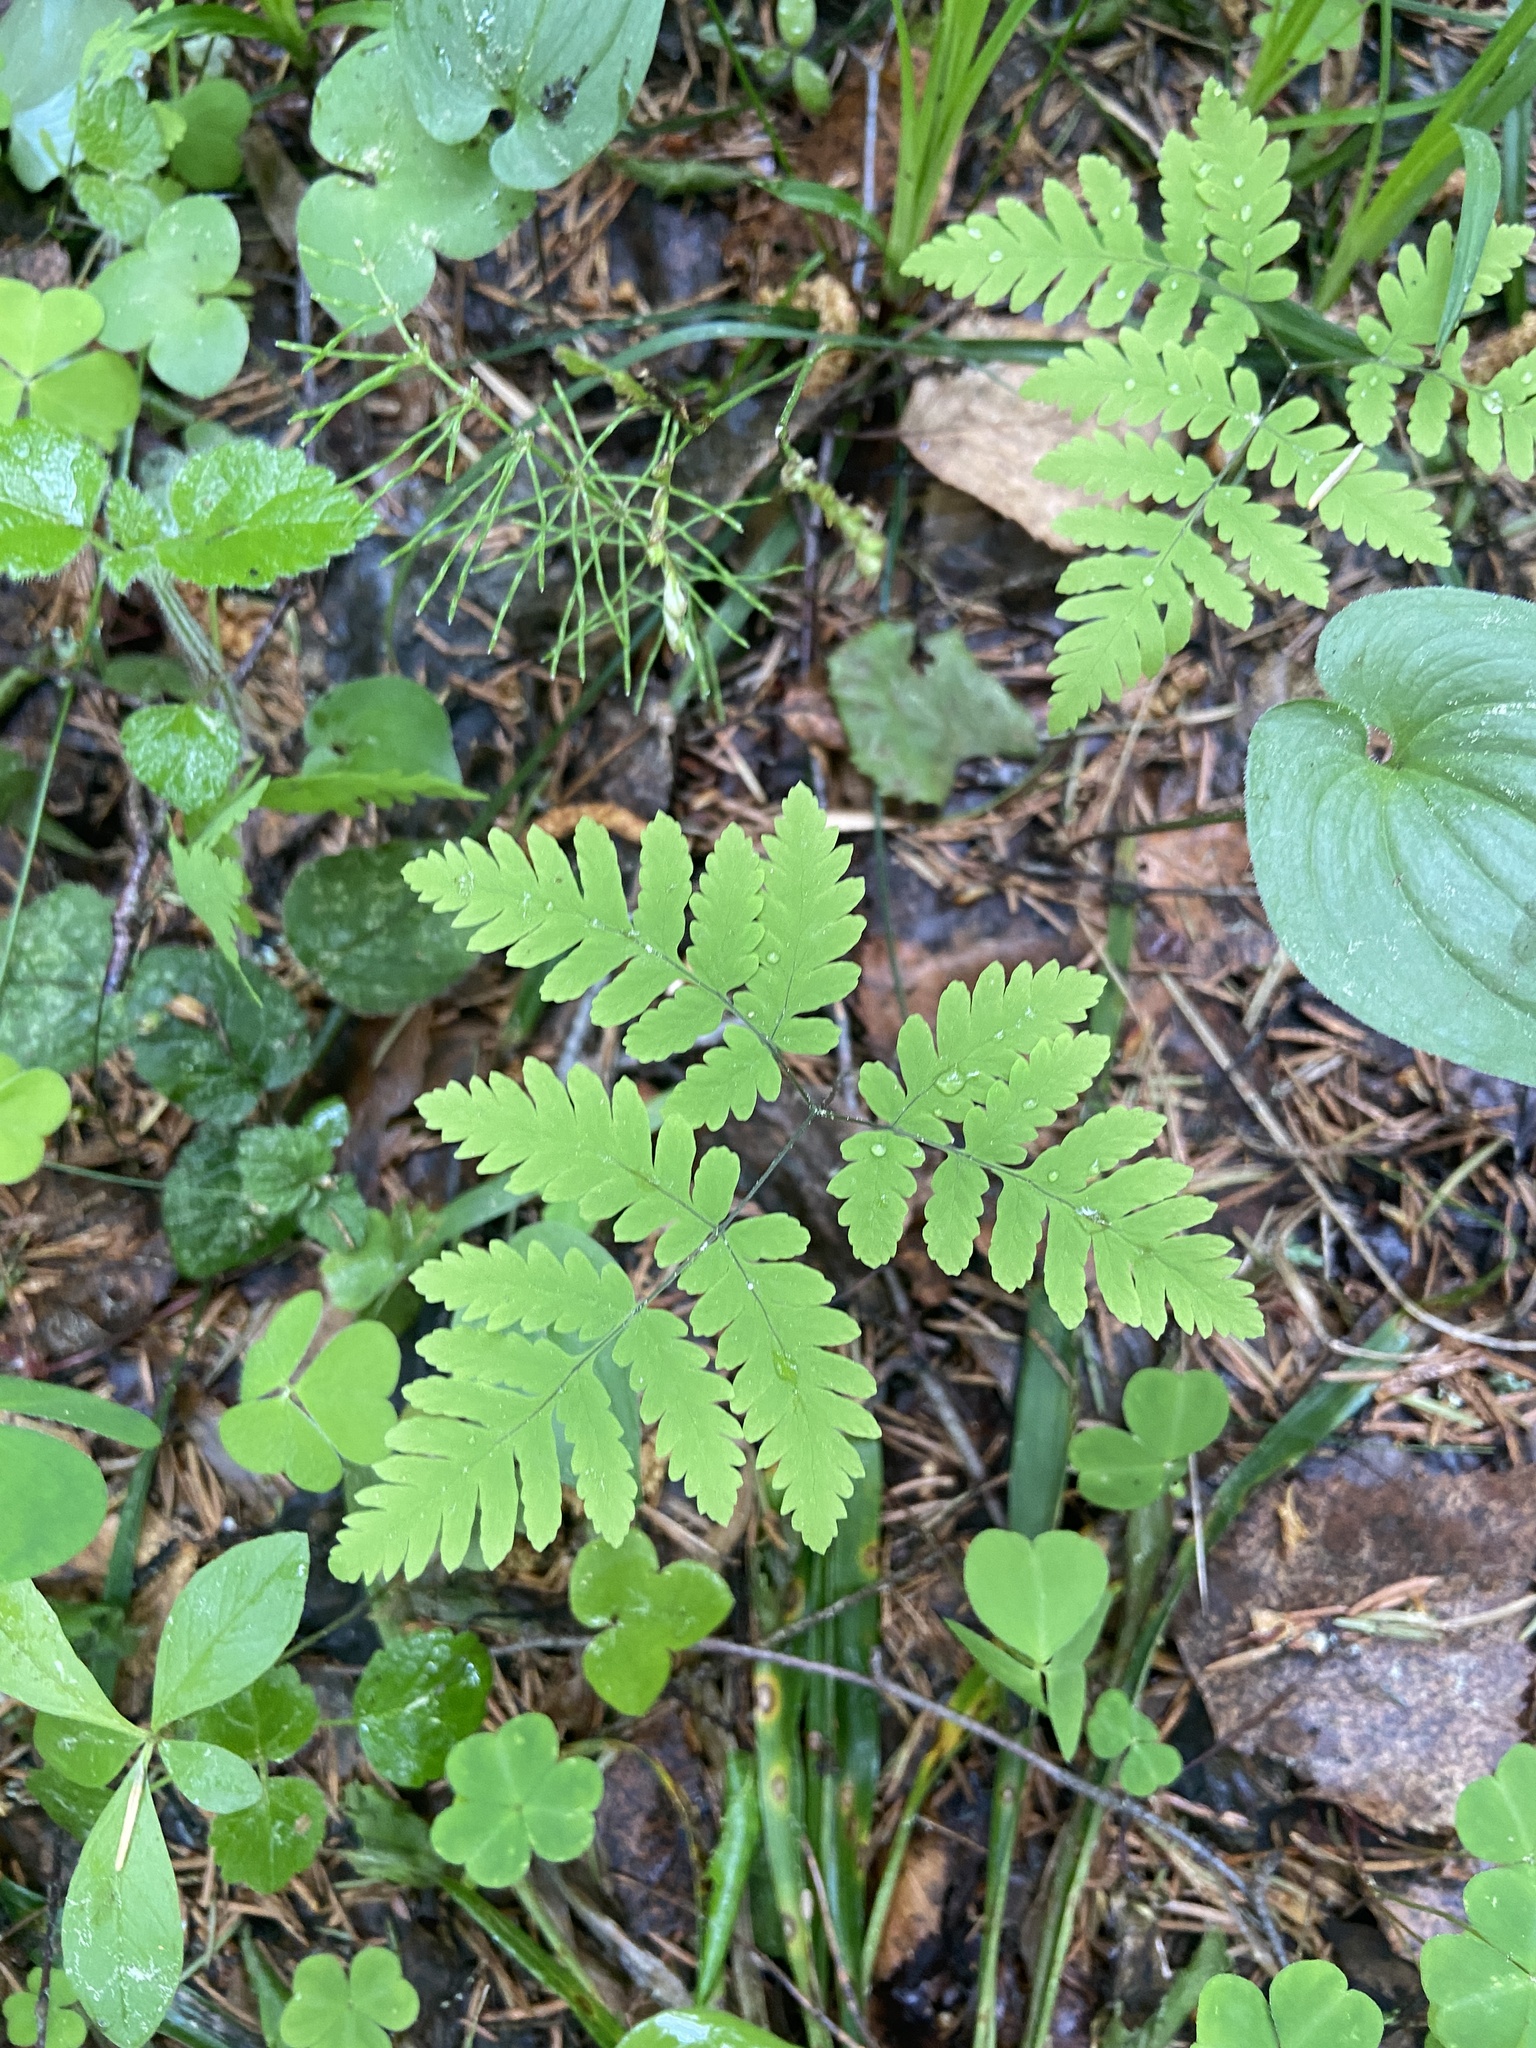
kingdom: Plantae
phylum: Tracheophyta
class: Polypodiopsida
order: Polypodiales
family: Cystopteridaceae
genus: Gymnocarpium
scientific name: Gymnocarpium dryopteris
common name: Oak fern
